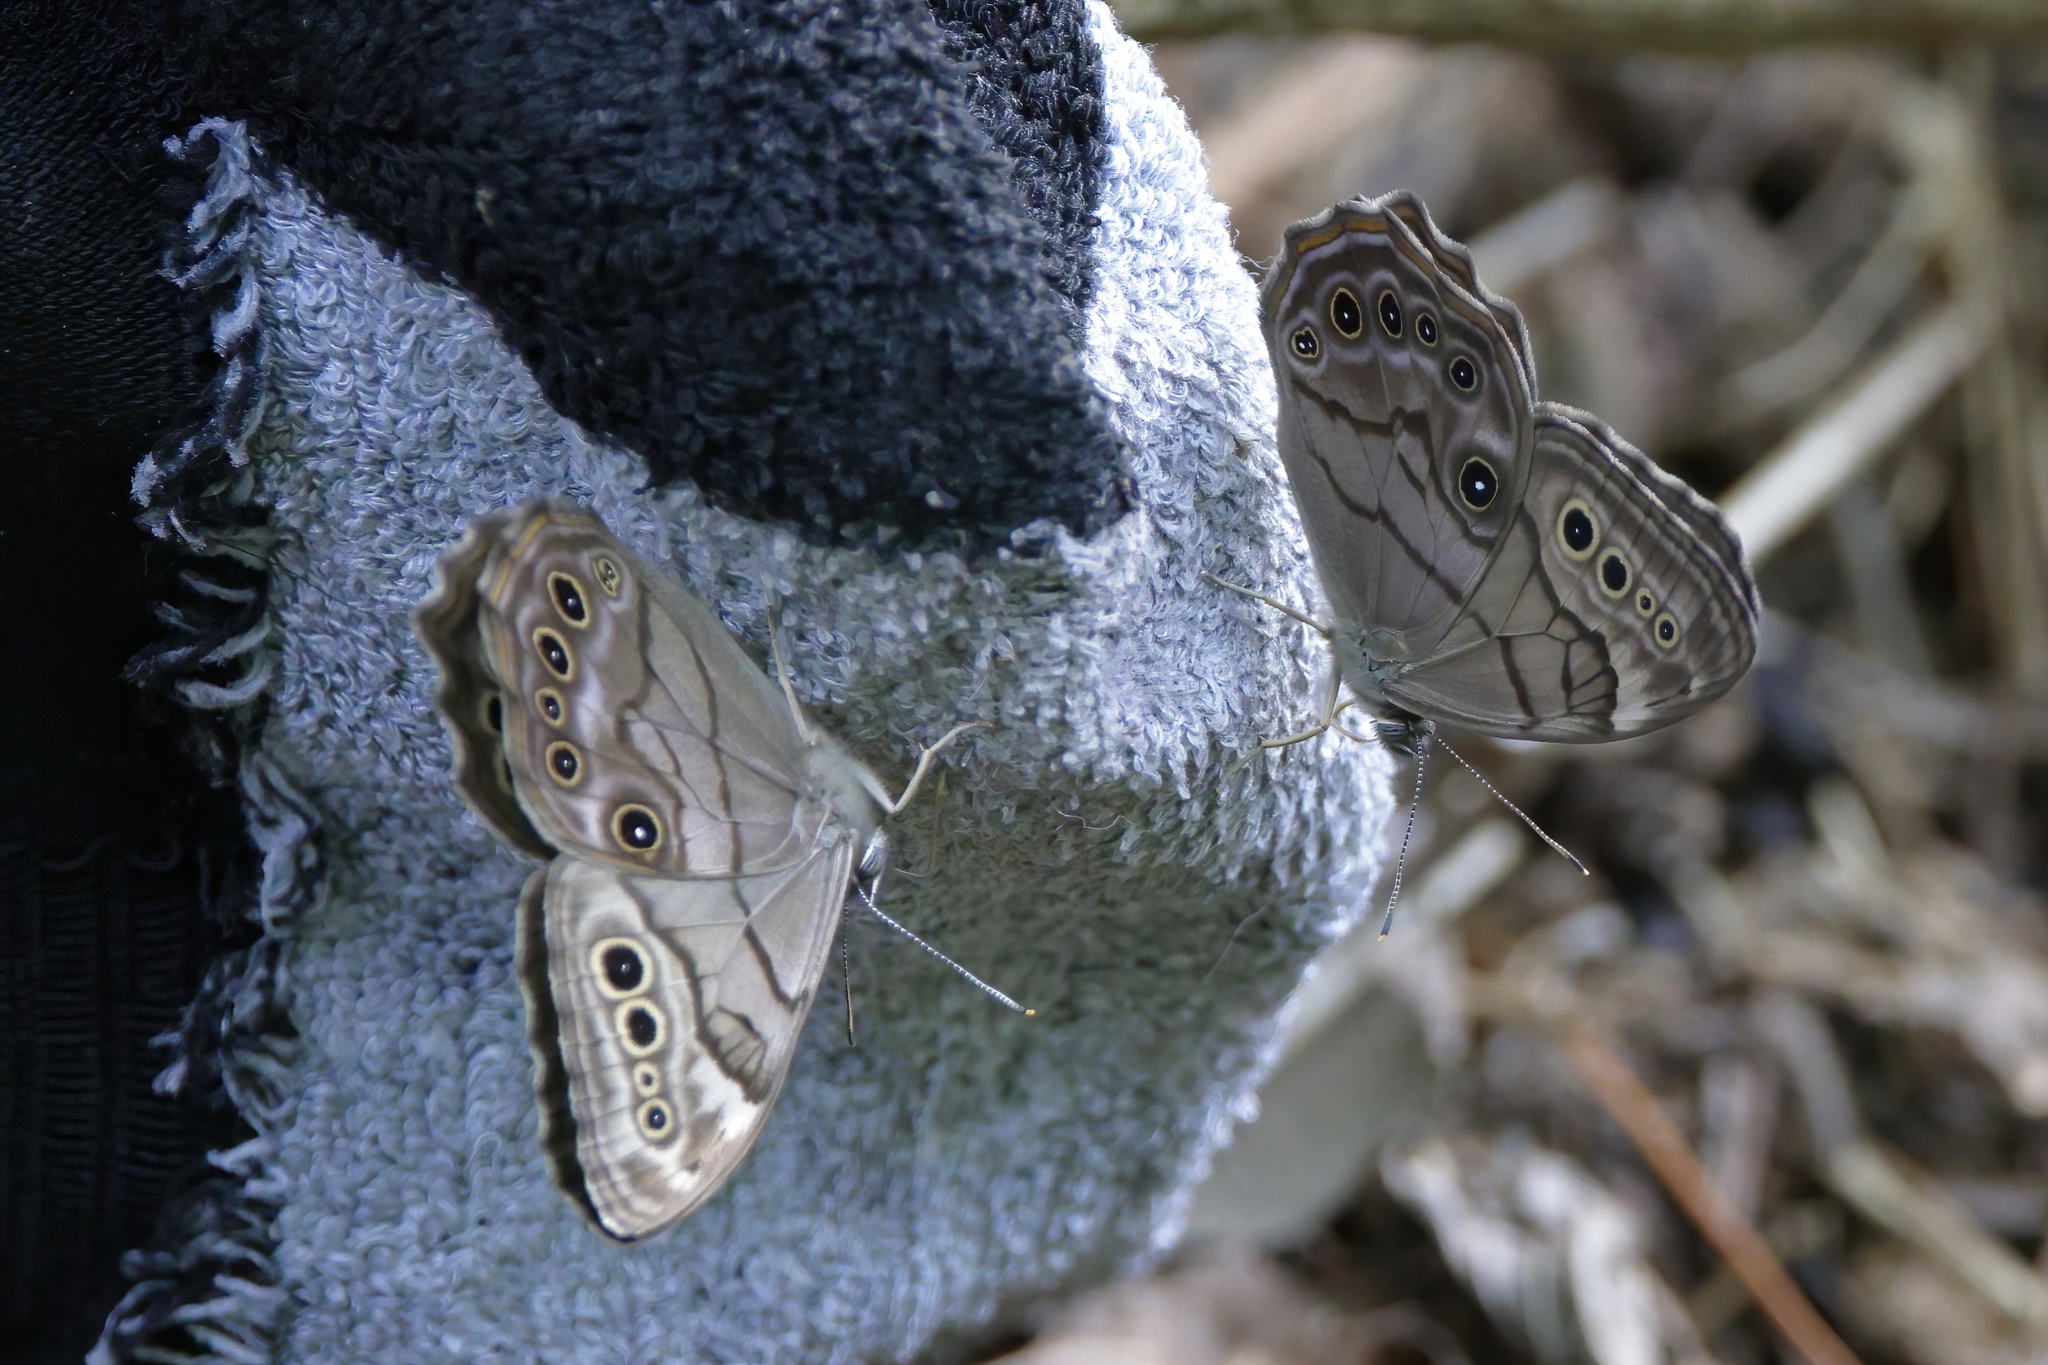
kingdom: Animalia
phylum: Arthropoda
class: Insecta
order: Lepidoptera
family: Nymphalidae
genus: Lethe
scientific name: Lethe anthedon
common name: Northern pearly-eye
